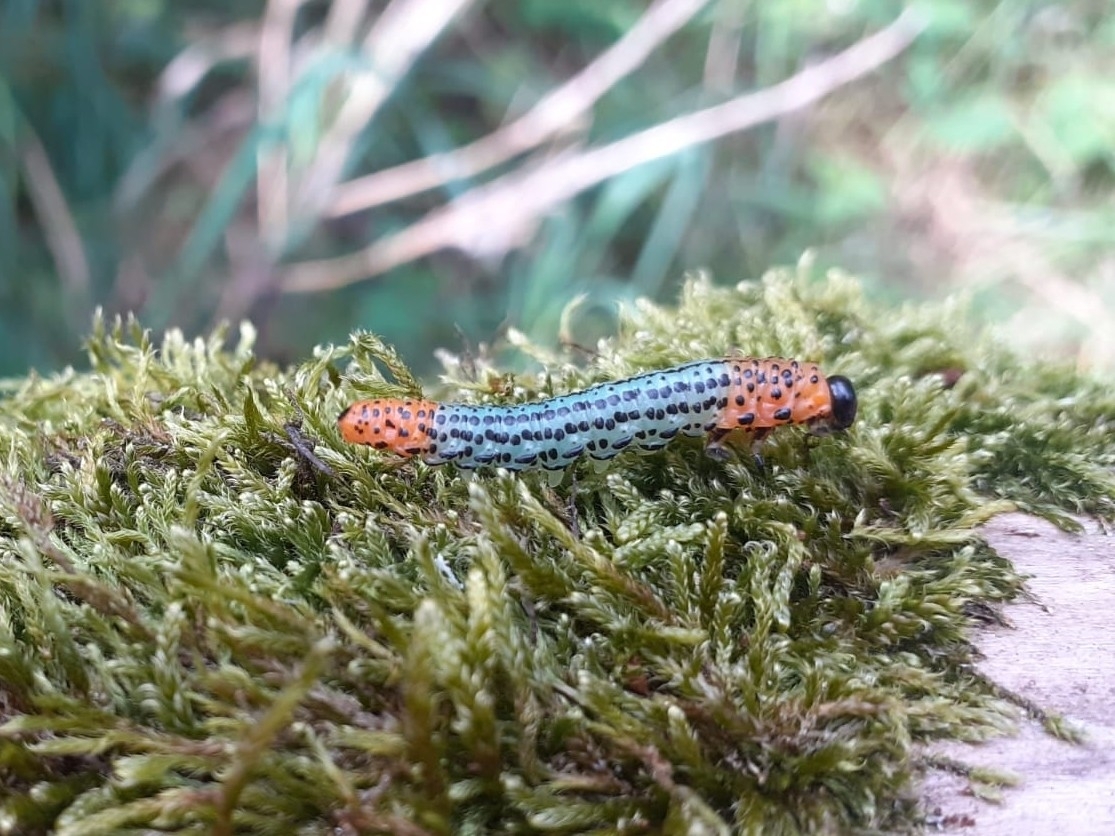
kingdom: Animalia
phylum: Arthropoda
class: Insecta
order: Hymenoptera
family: Tenthredinidae
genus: Nematus
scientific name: Nematus salicis
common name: Willow sawfly
